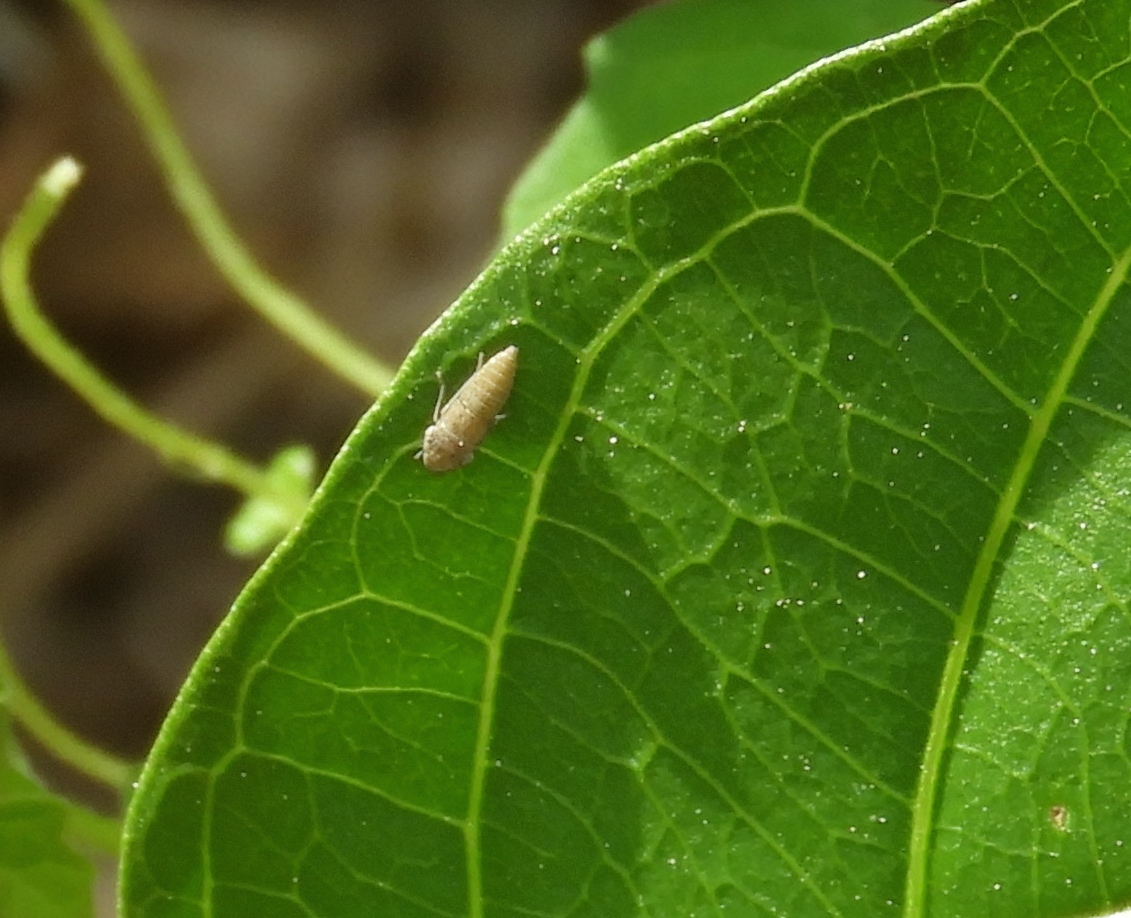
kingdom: Animalia
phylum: Arthropoda
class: Insecta
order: Hemiptera
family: Cicadellidae
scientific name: Cicadellidae
